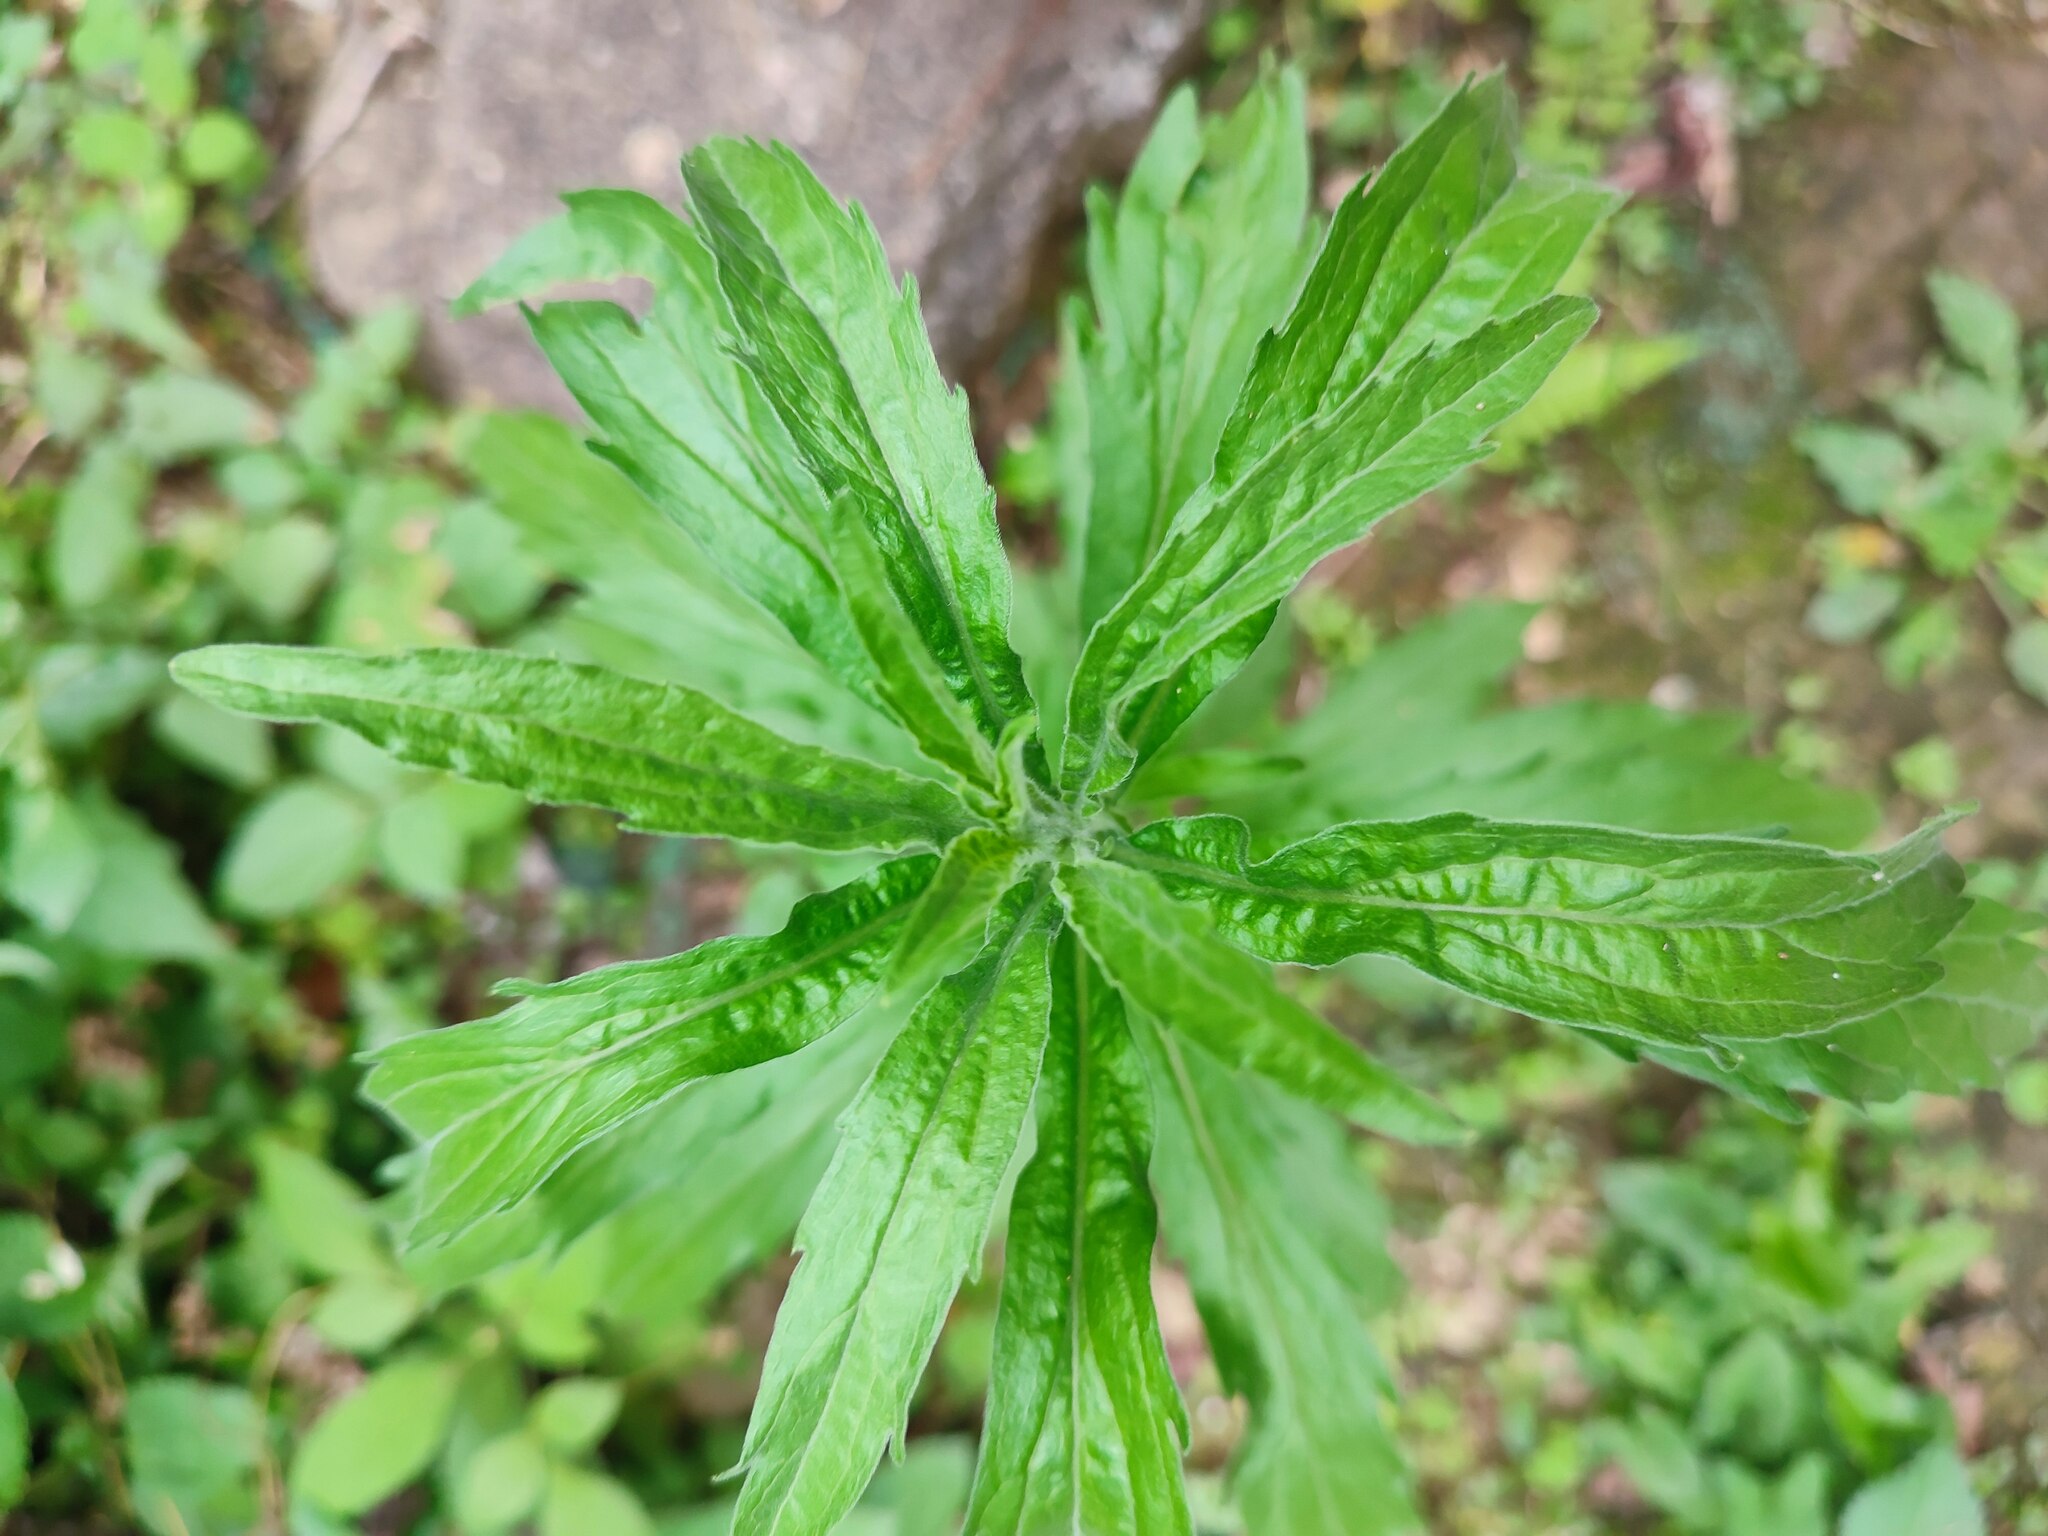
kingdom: Plantae
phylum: Tracheophyta
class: Magnoliopsida
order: Asterales
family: Asteraceae
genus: Erigeron
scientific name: Erigeron sumatrensis
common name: Daisy
